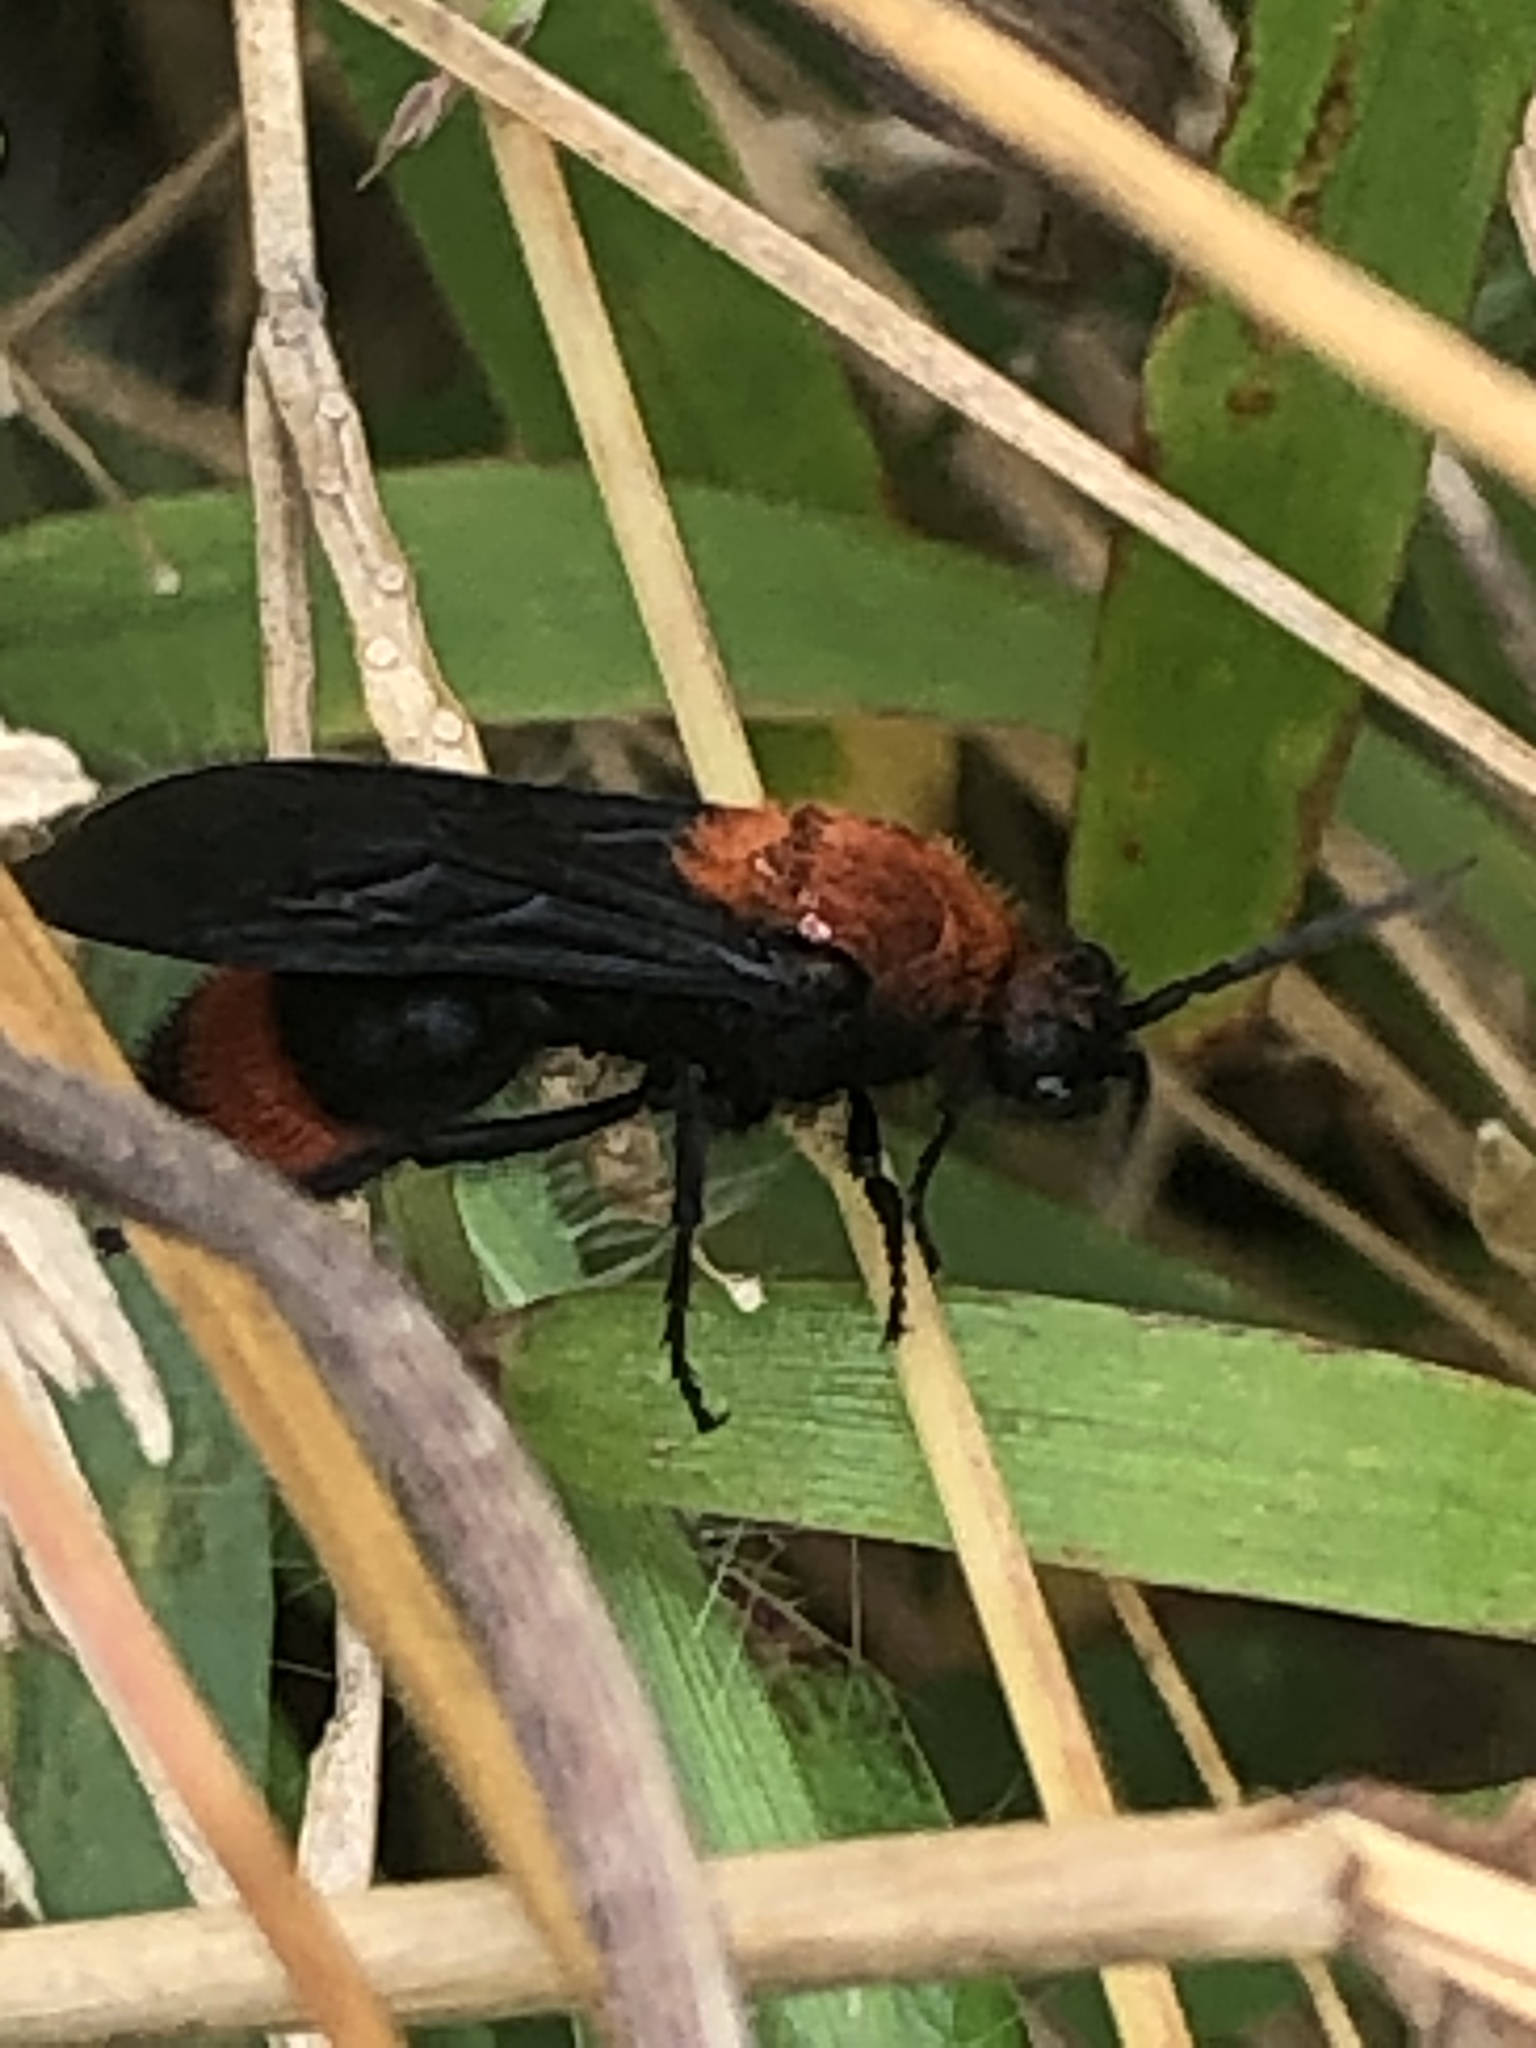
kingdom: Animalia
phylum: Arthropoda
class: Insecta
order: Hymenoptera
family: Mutillidae
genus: Dasymutilla
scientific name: Dasymutilla occidentalis
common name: Common eastern velvet ant
